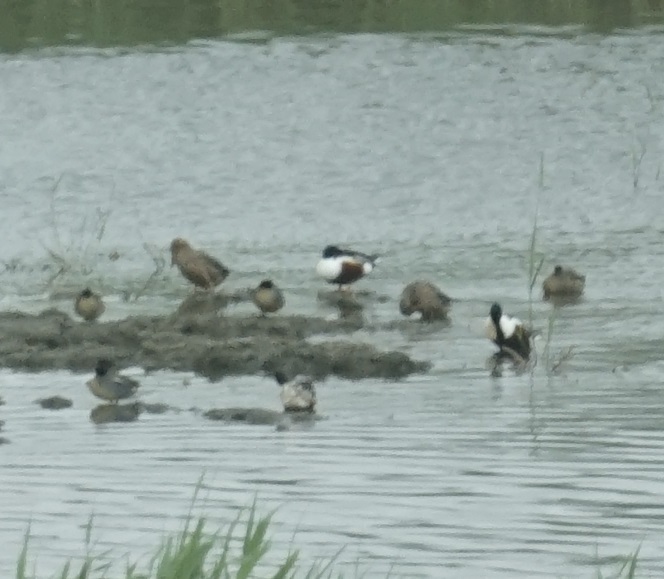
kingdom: Animalia
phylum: Chordata
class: Aves
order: Anseriformes
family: Anatidae
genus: Spatula
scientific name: Spatula clypeata
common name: Northern shoveler
